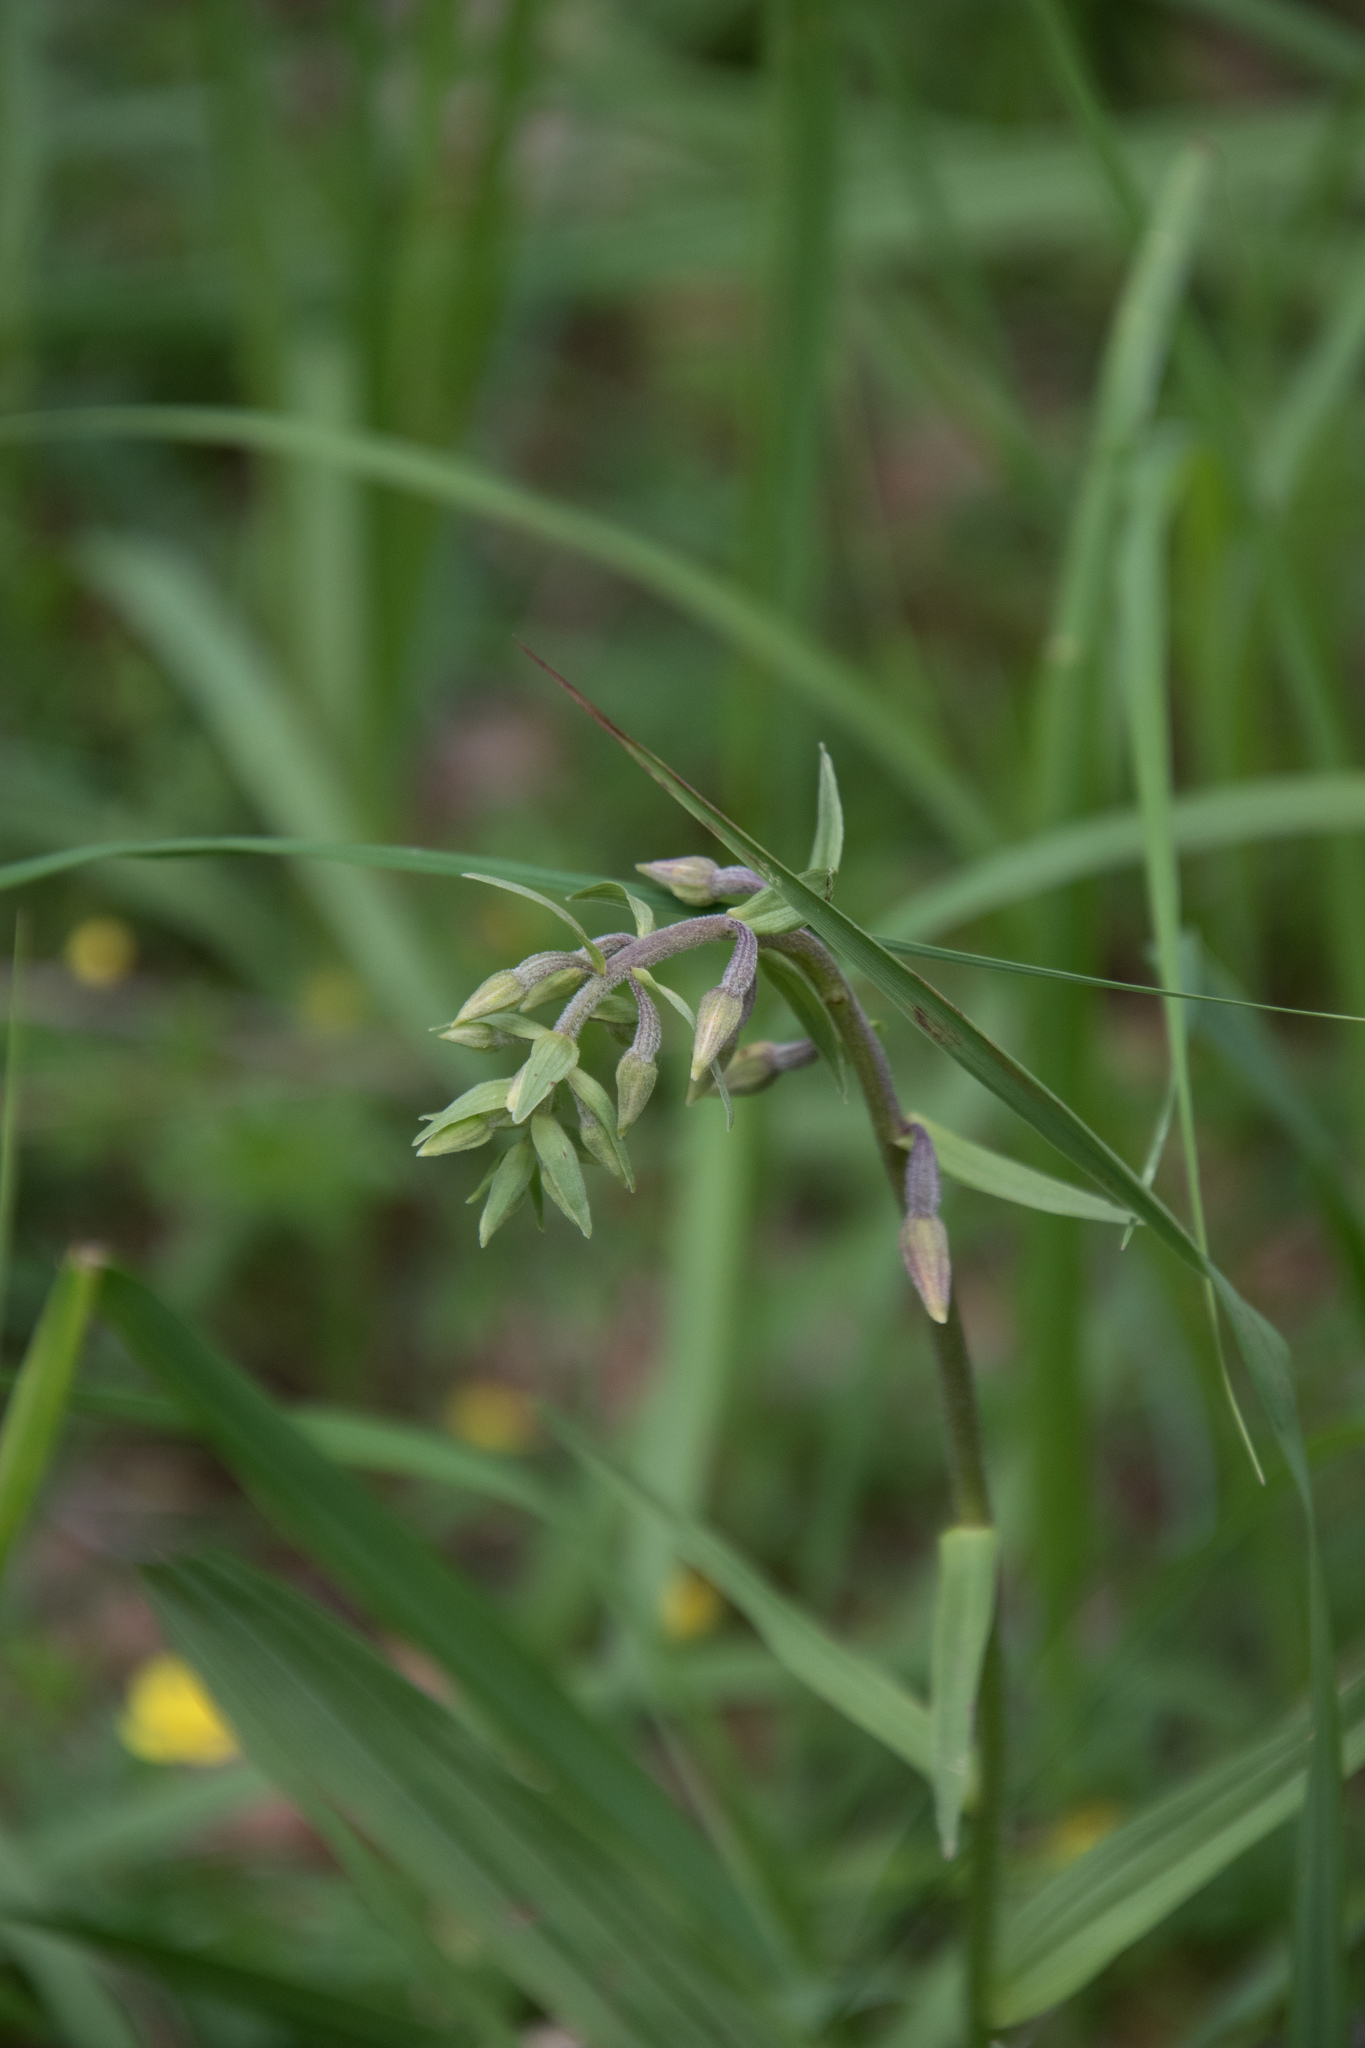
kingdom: Plantae
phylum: Tracheophyta
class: Liliopsida
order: Asparagales
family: Orchidaceae
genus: Epipactis
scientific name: Epipactis palustris
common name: Marsh helleborine
